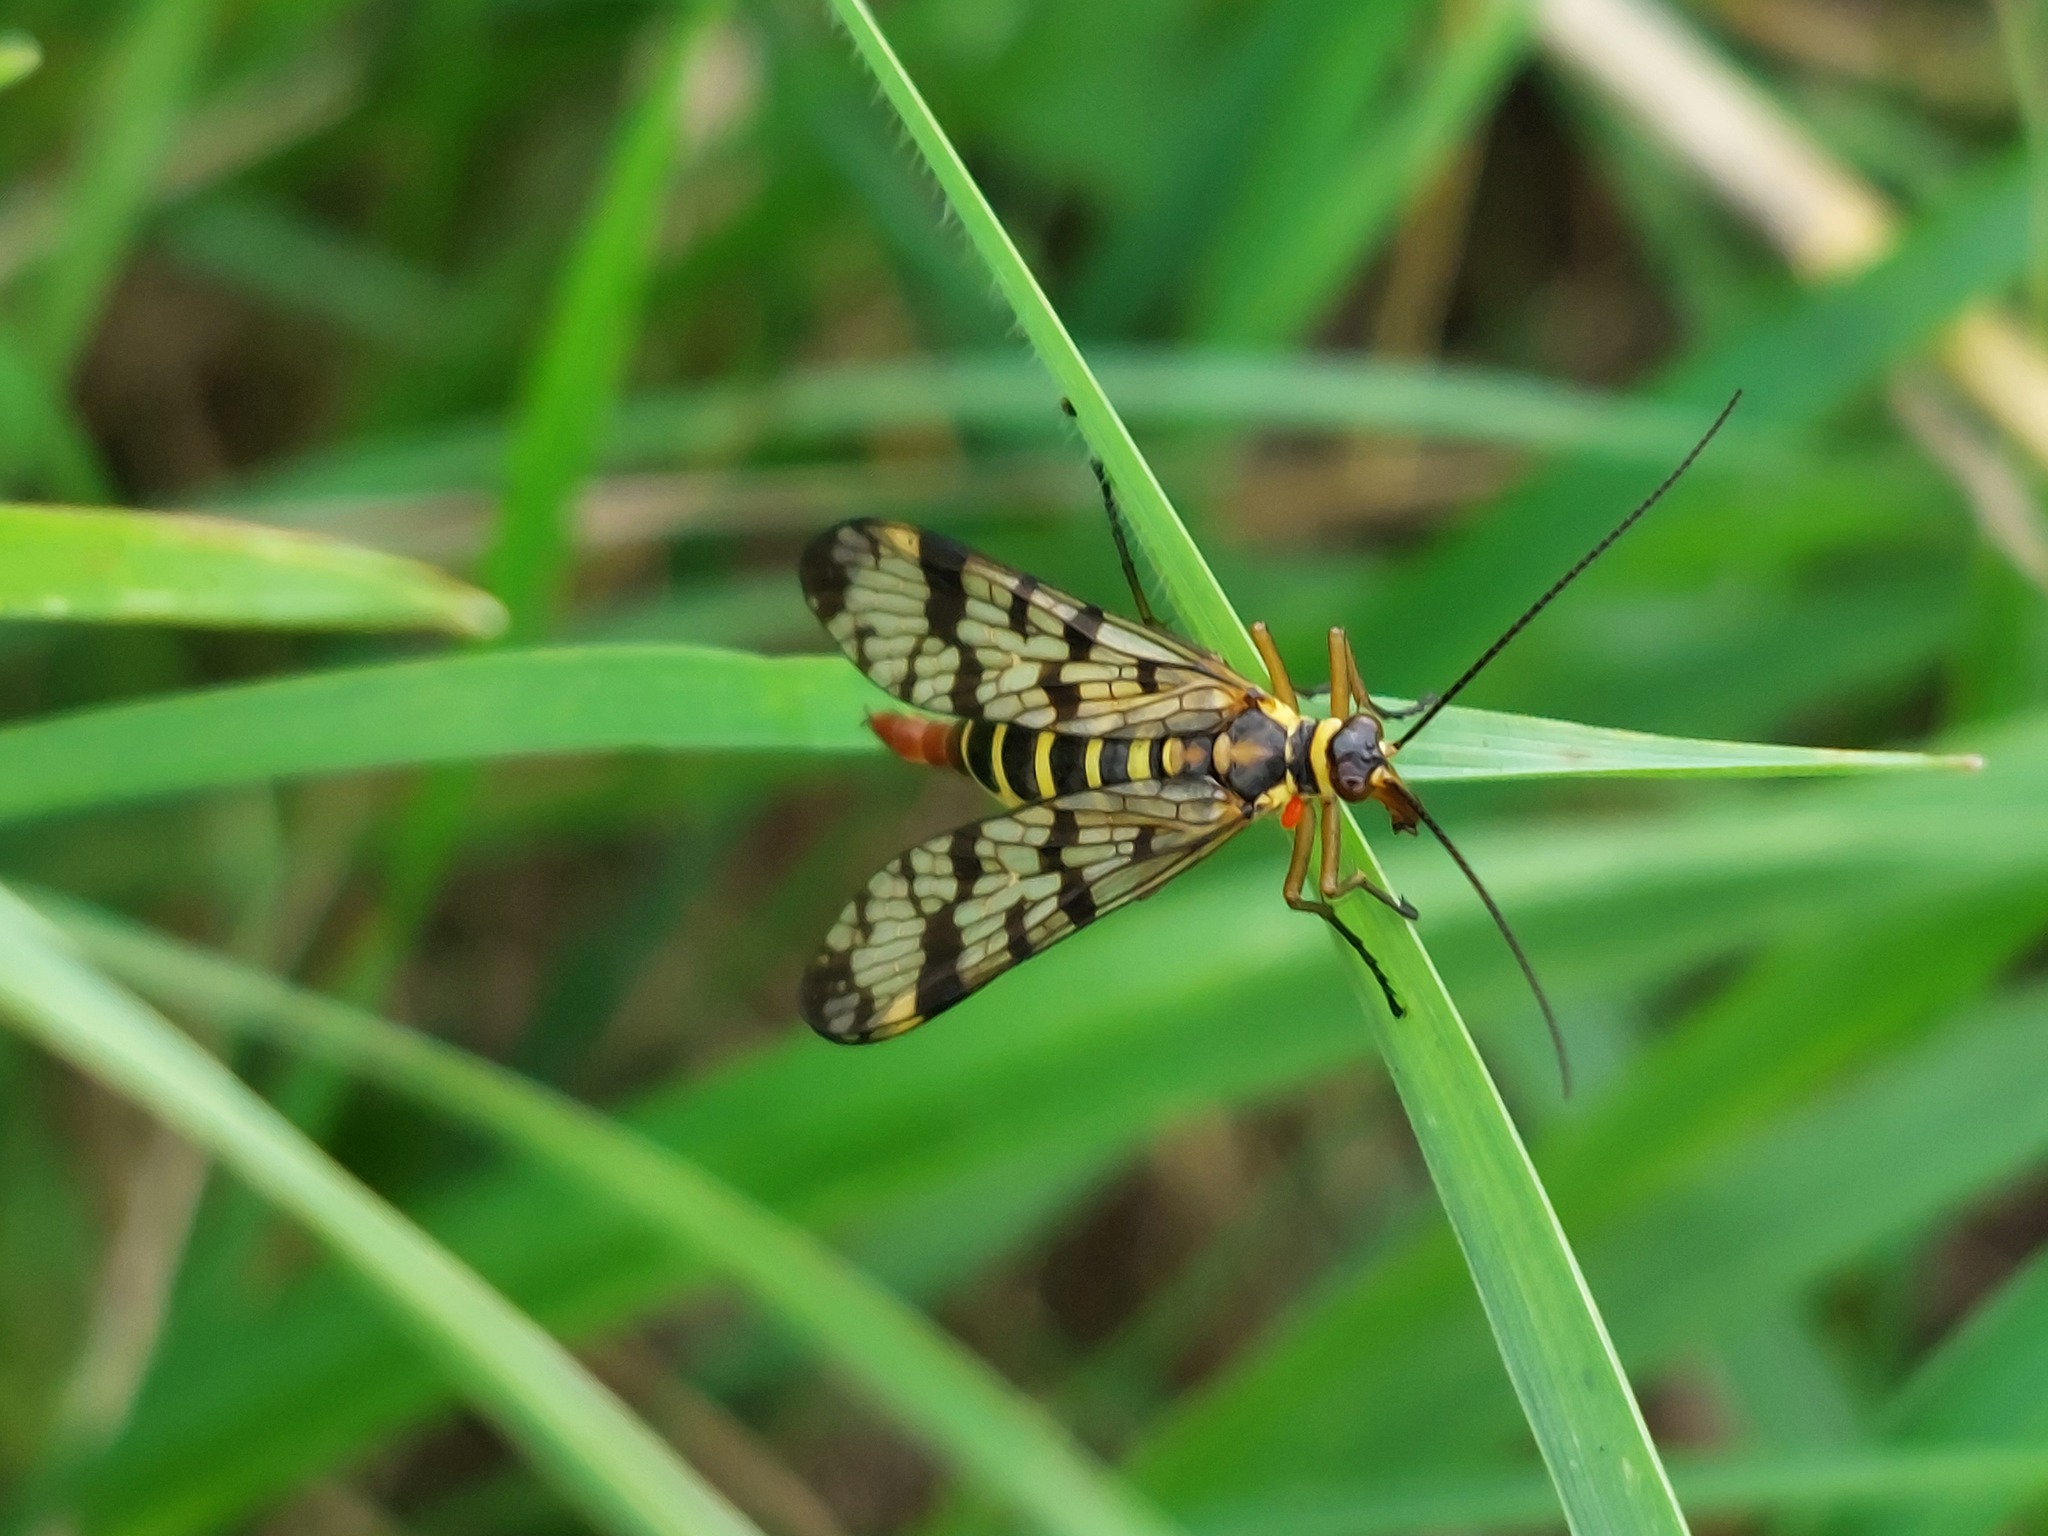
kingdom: Animalia
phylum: Arthropoda
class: Insecta
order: Mecoptera
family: Panorpidae
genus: Panorpa
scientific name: Panorpa communis
